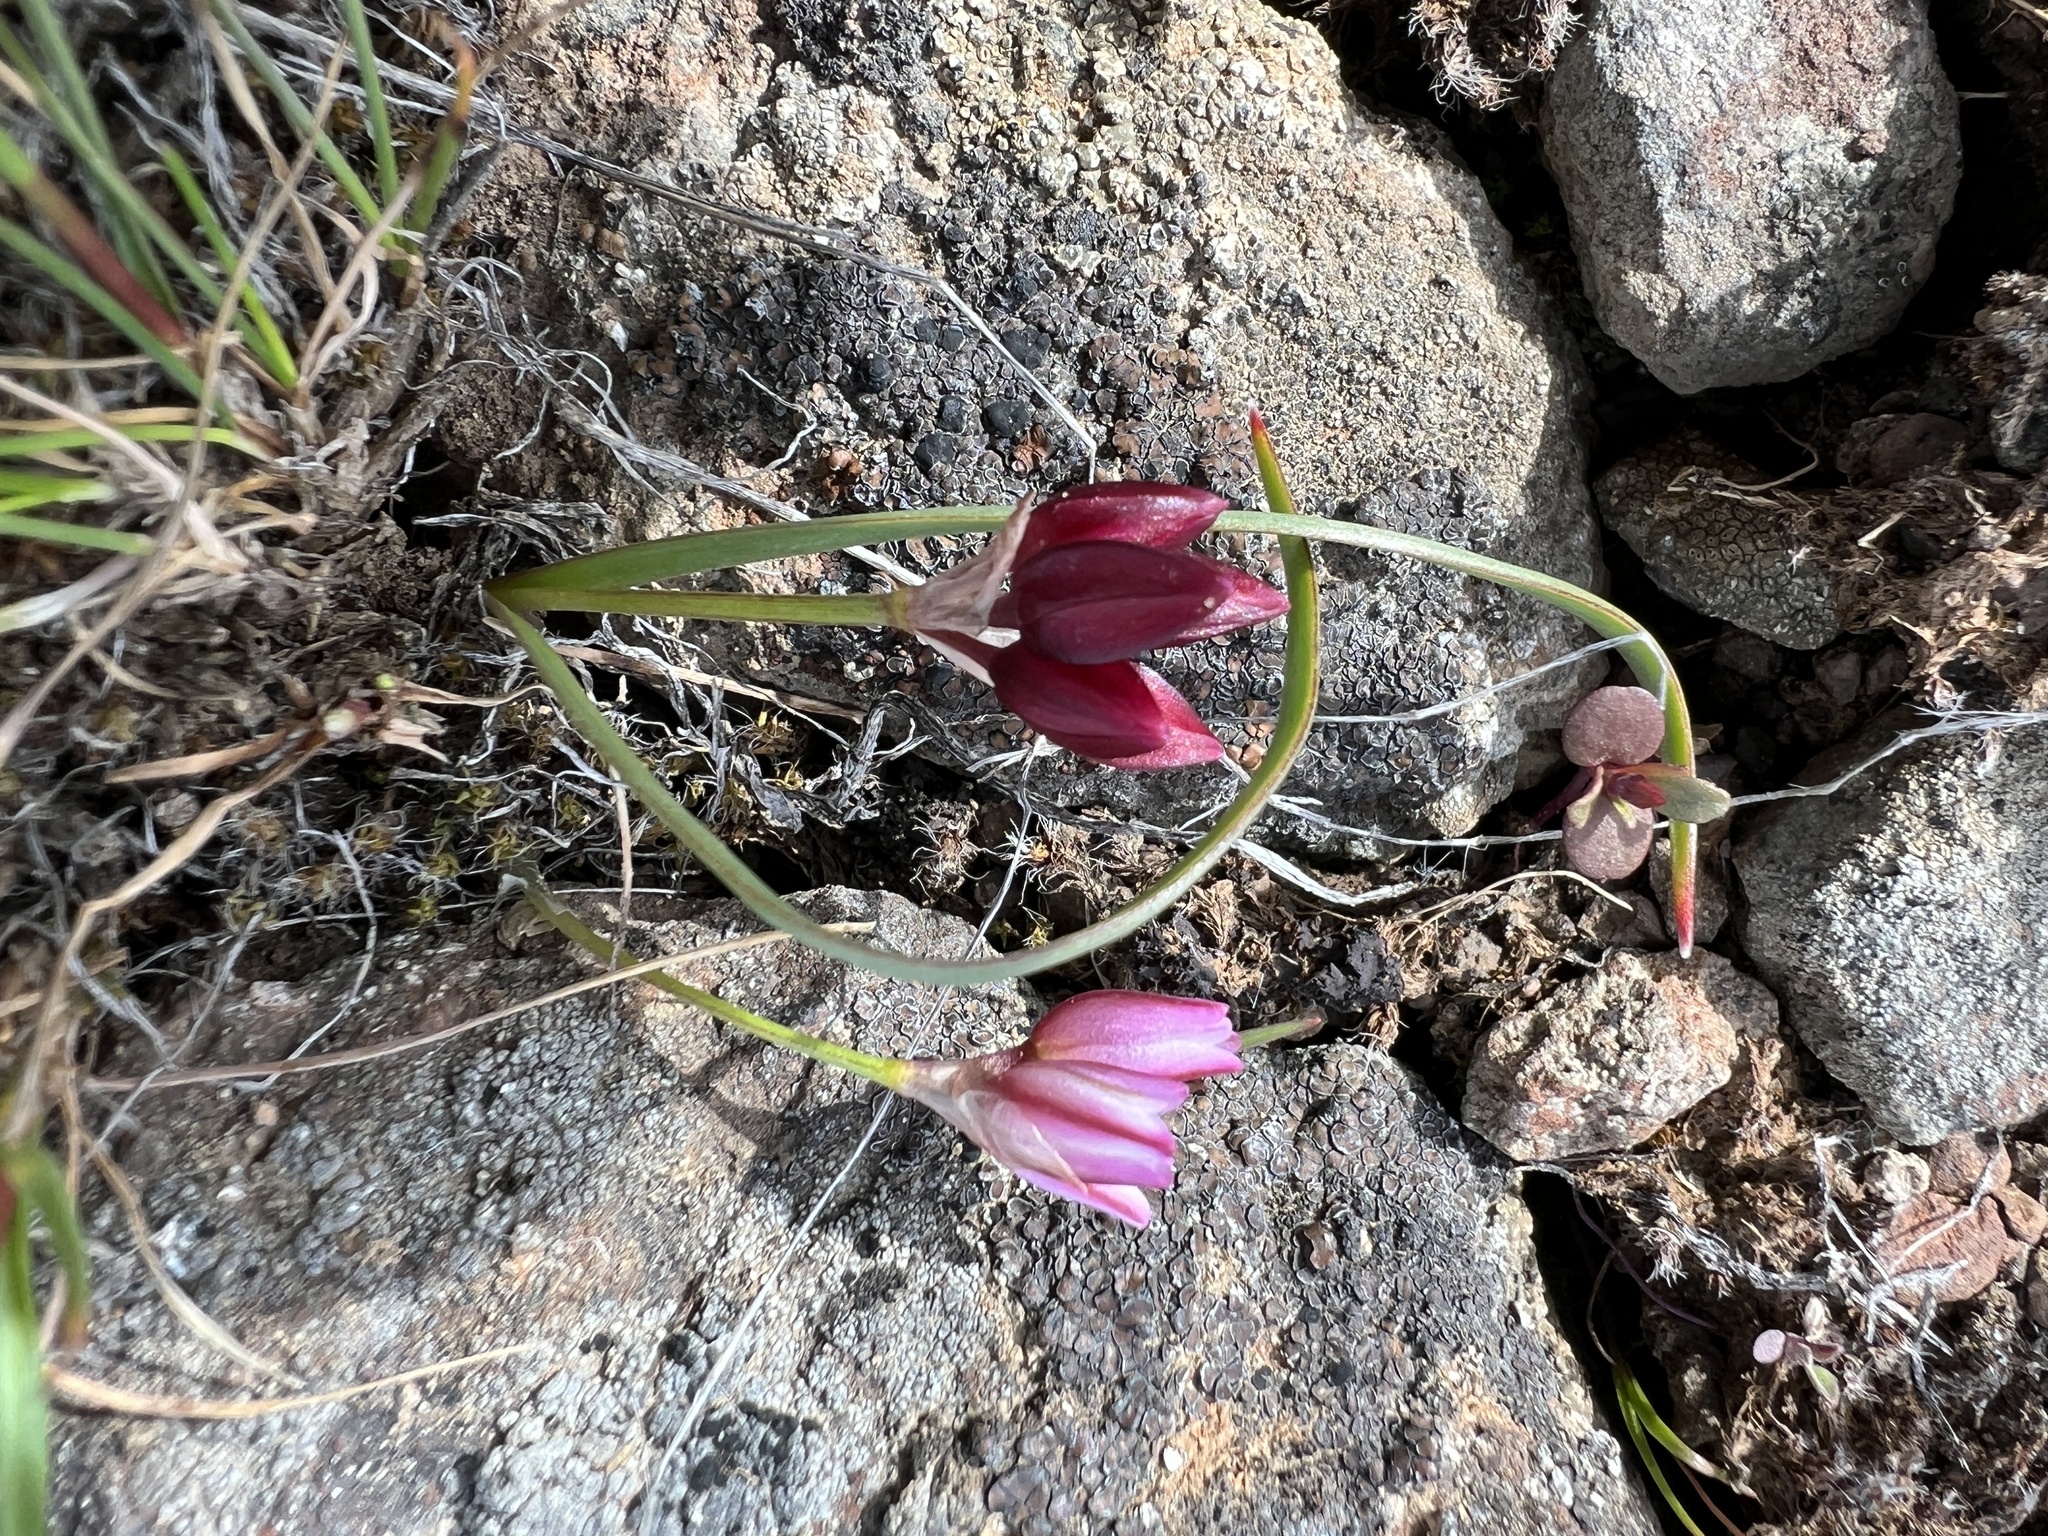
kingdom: Plantae
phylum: Tracheophyta
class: Liliopsida
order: Asparagales
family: Amaryllidaceae
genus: Allium
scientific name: Allium scilloides
